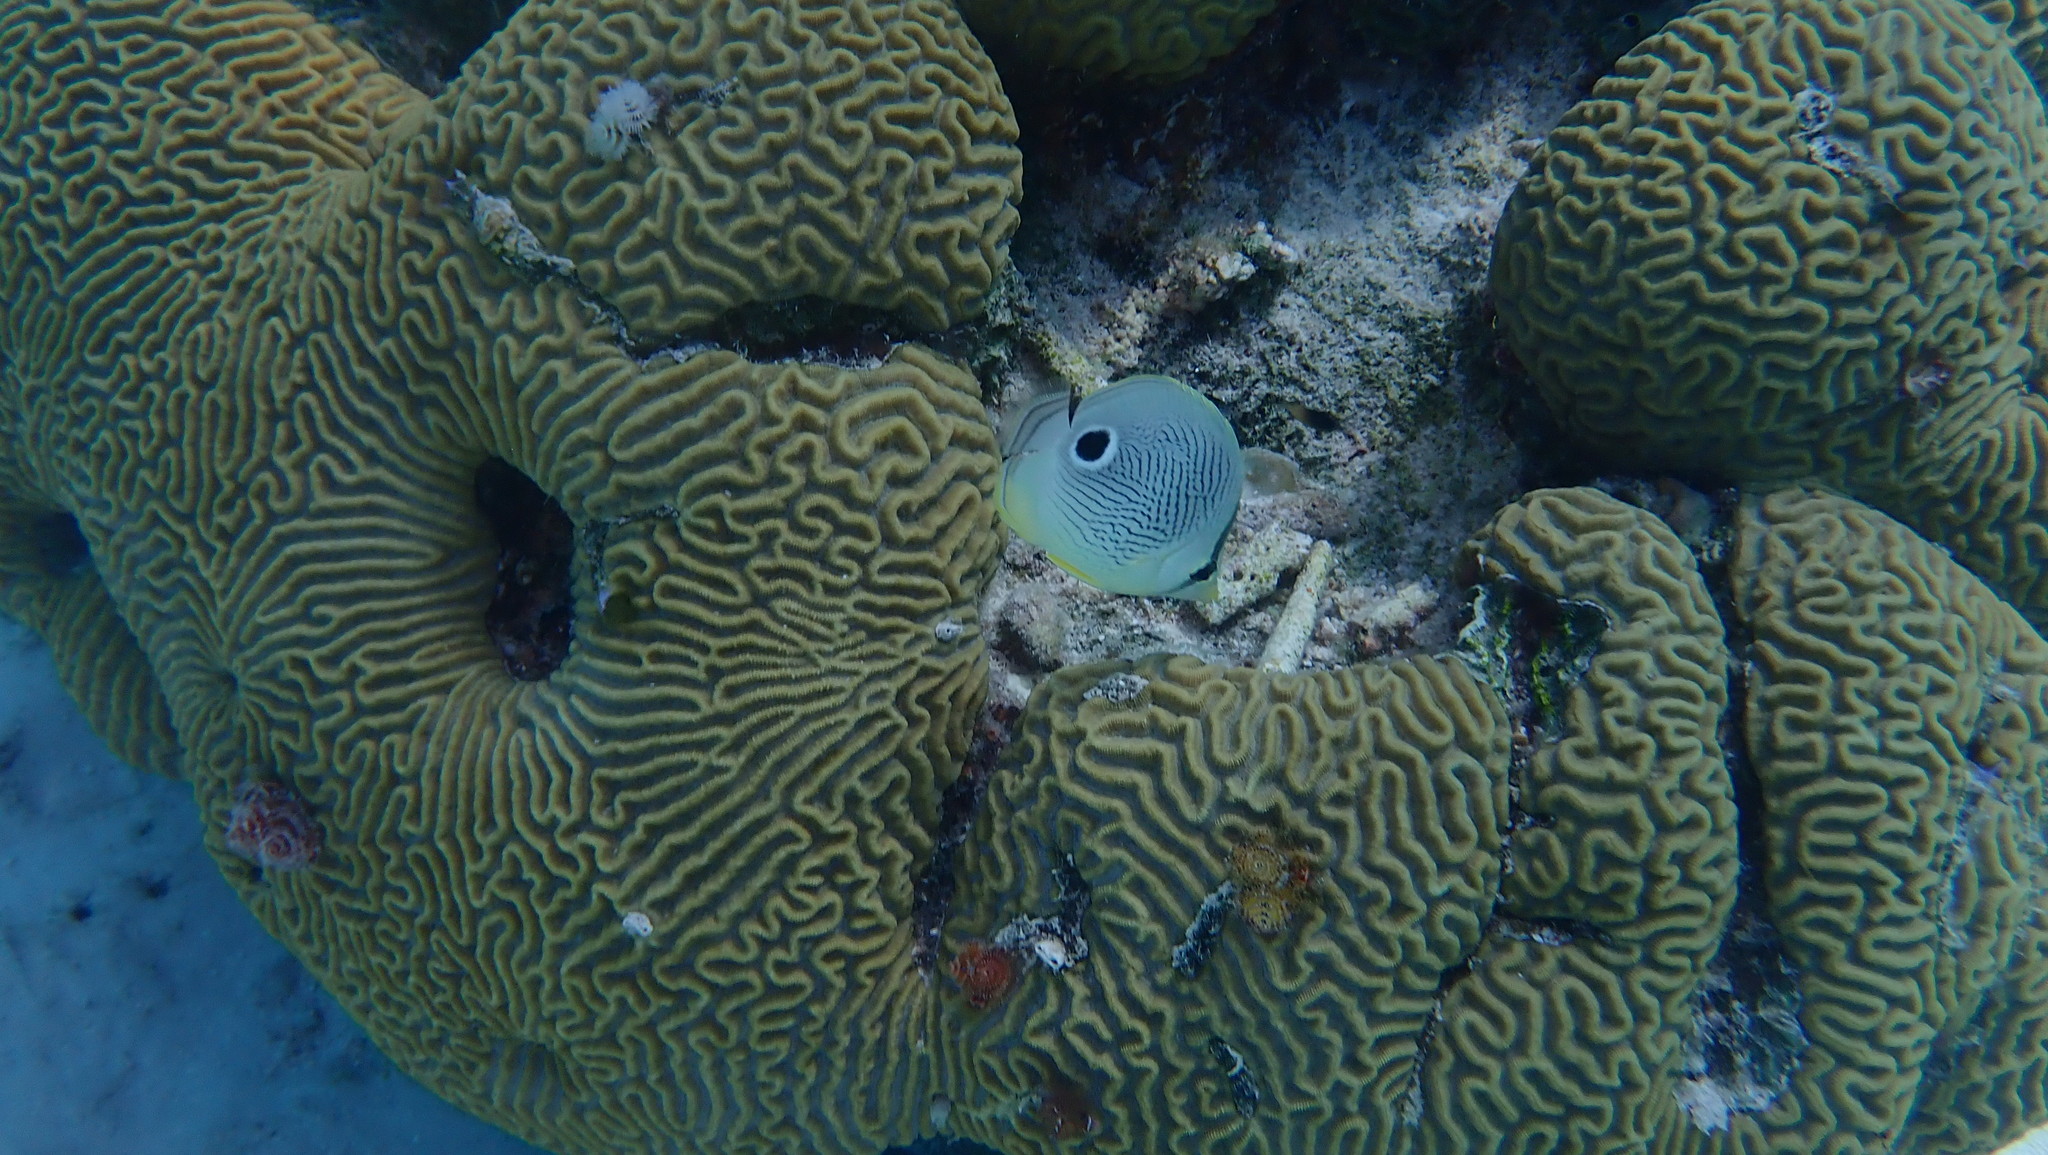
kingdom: Animalia
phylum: Chordata
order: Perciformes
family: Chaetodontidae
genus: Chaetodon
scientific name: Chaetodon capistratus
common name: Kete
